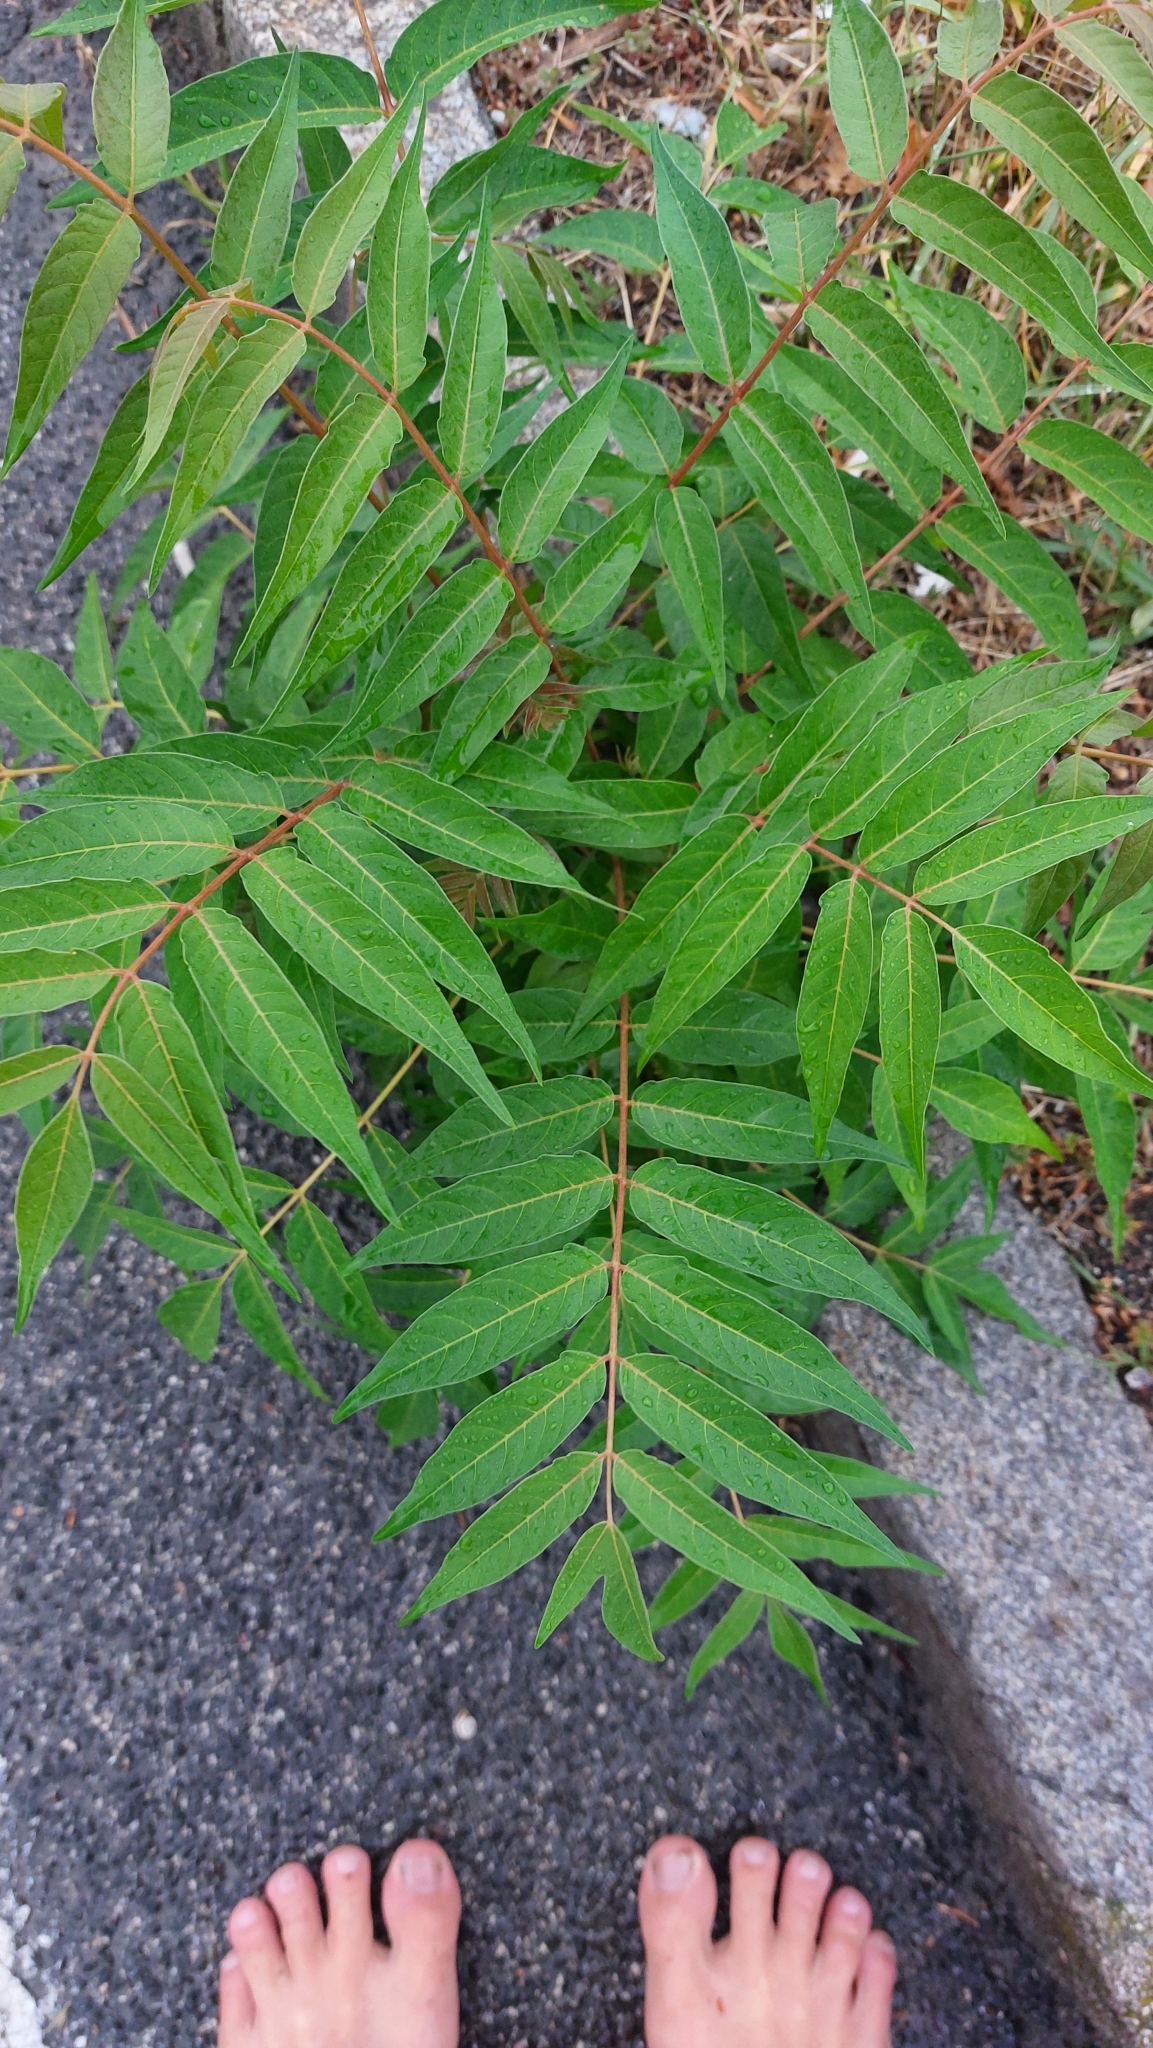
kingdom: Plantae
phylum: Tracheophyta
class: Magnoliopsida
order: Sapindales
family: Simaroubaceae
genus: Ailanthus
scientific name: Ailanthus altissima
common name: Tree-of-heaven
